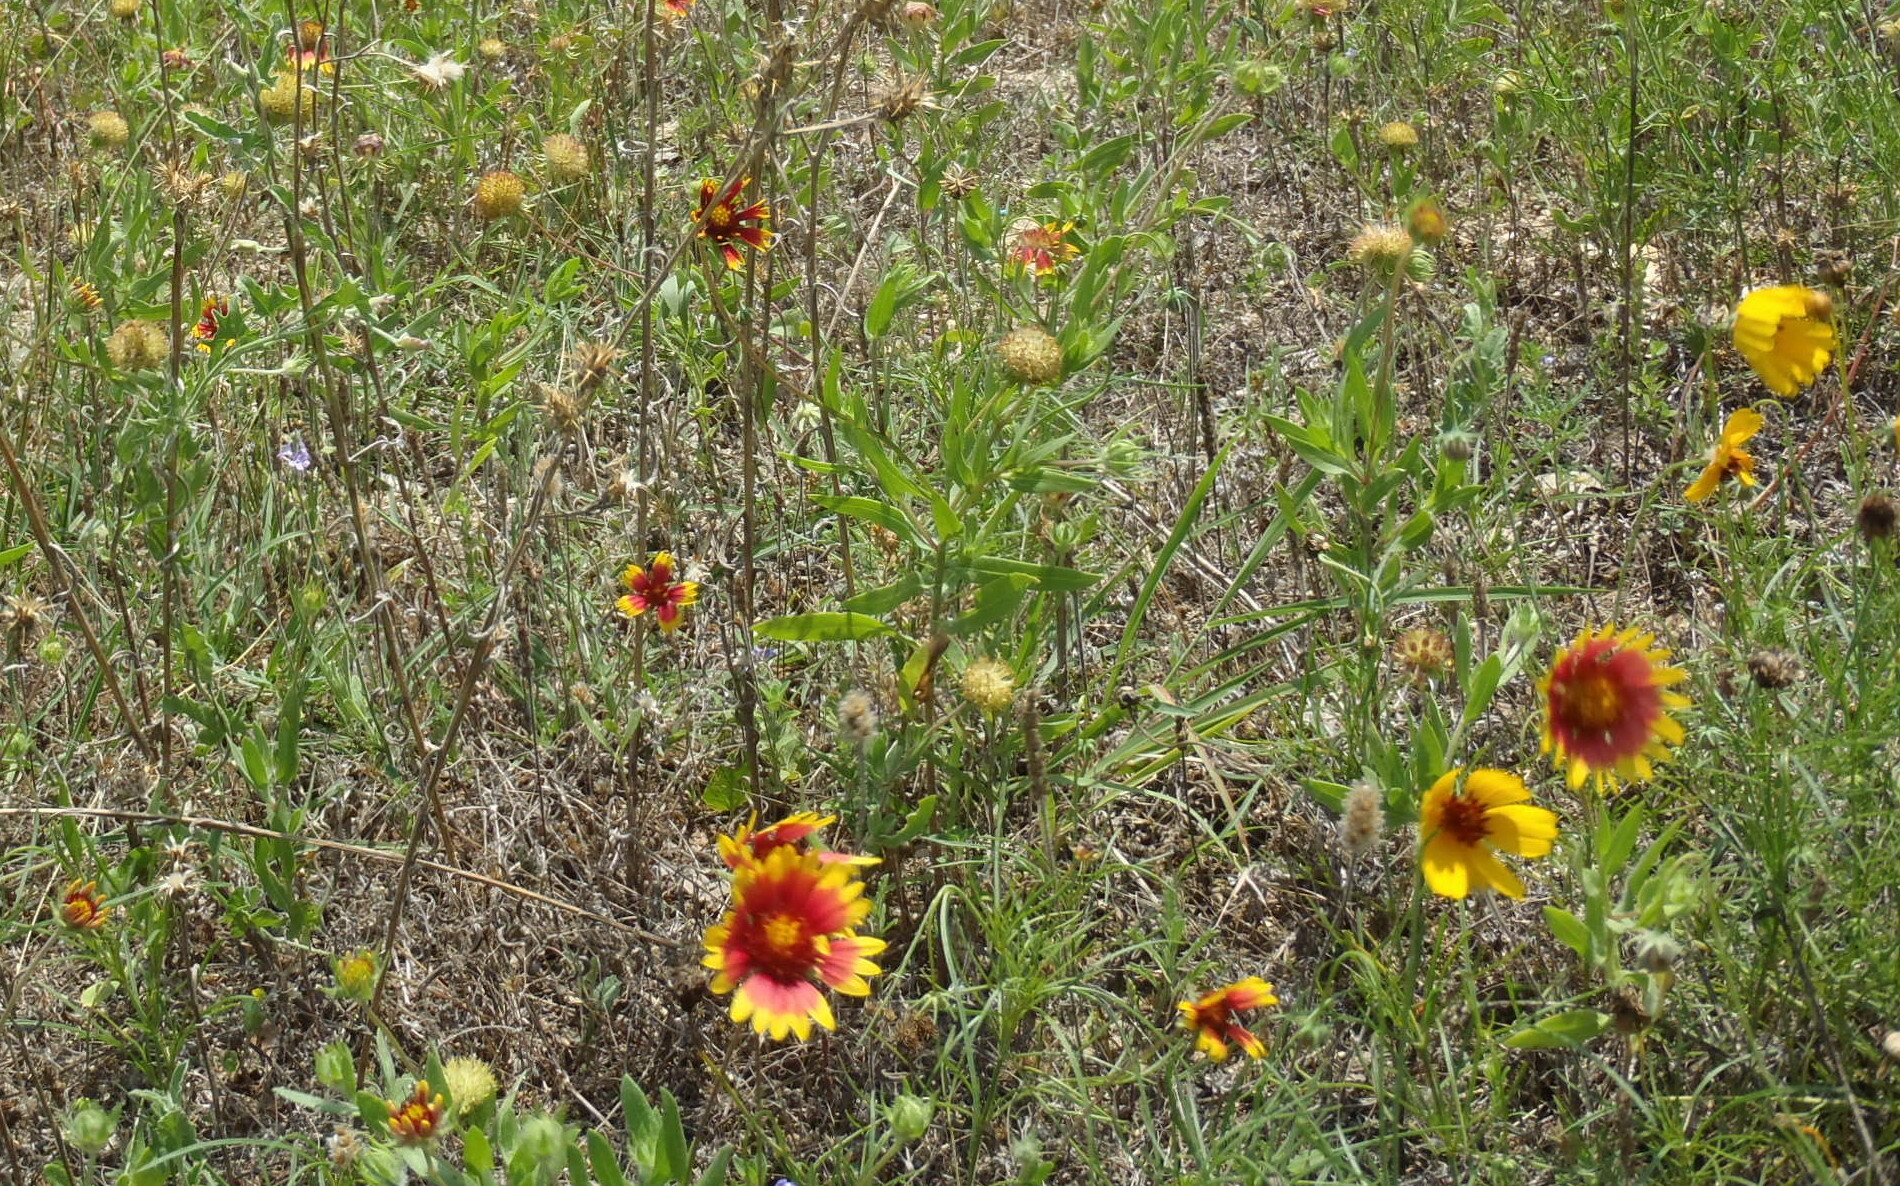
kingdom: Plantae
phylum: Tracheophyta
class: Magnoliopsida
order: Asterales
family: Asteraceae
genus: Gaillardia
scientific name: Gaillardia pulchella
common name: Firewheel
